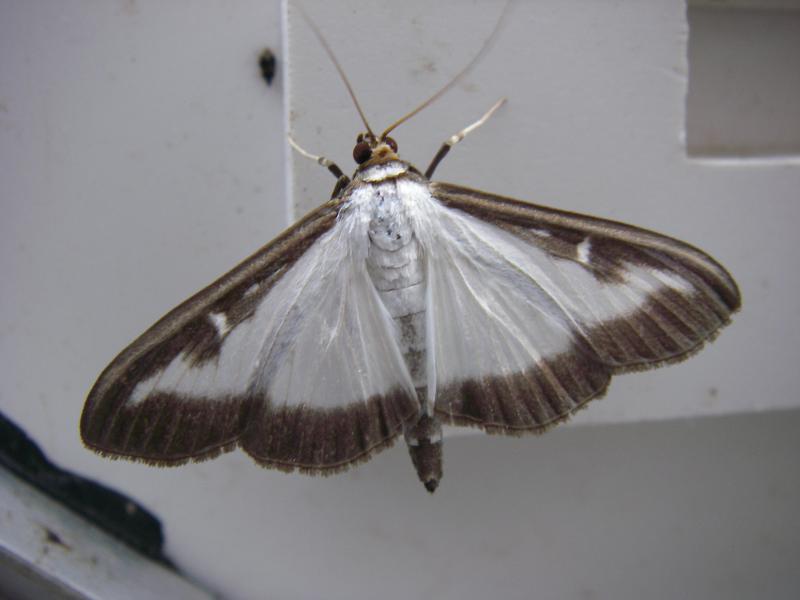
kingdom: Animalia
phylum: Arthropoda
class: Insecta
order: Lepidoptera
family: Crambidae
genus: Cydalima
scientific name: Cydalima perspectalis
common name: Box tree moth
